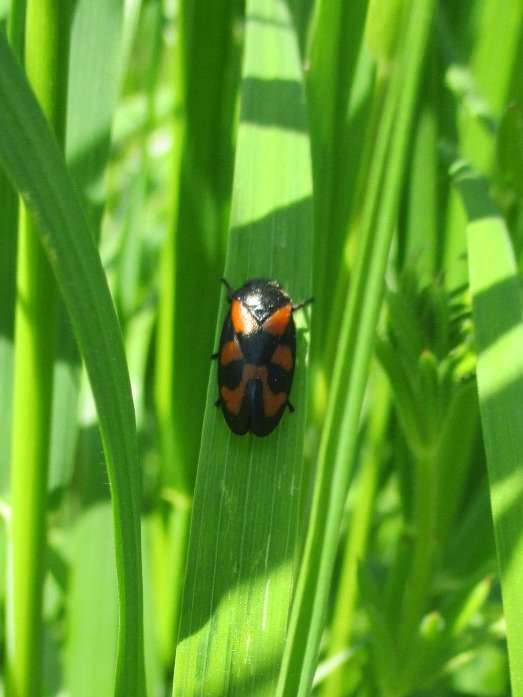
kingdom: Animalia
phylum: Arthropoda
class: Insecta
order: Hemiptera
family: Cercopidae
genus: Cercopis
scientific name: Cercopis vulnerata
